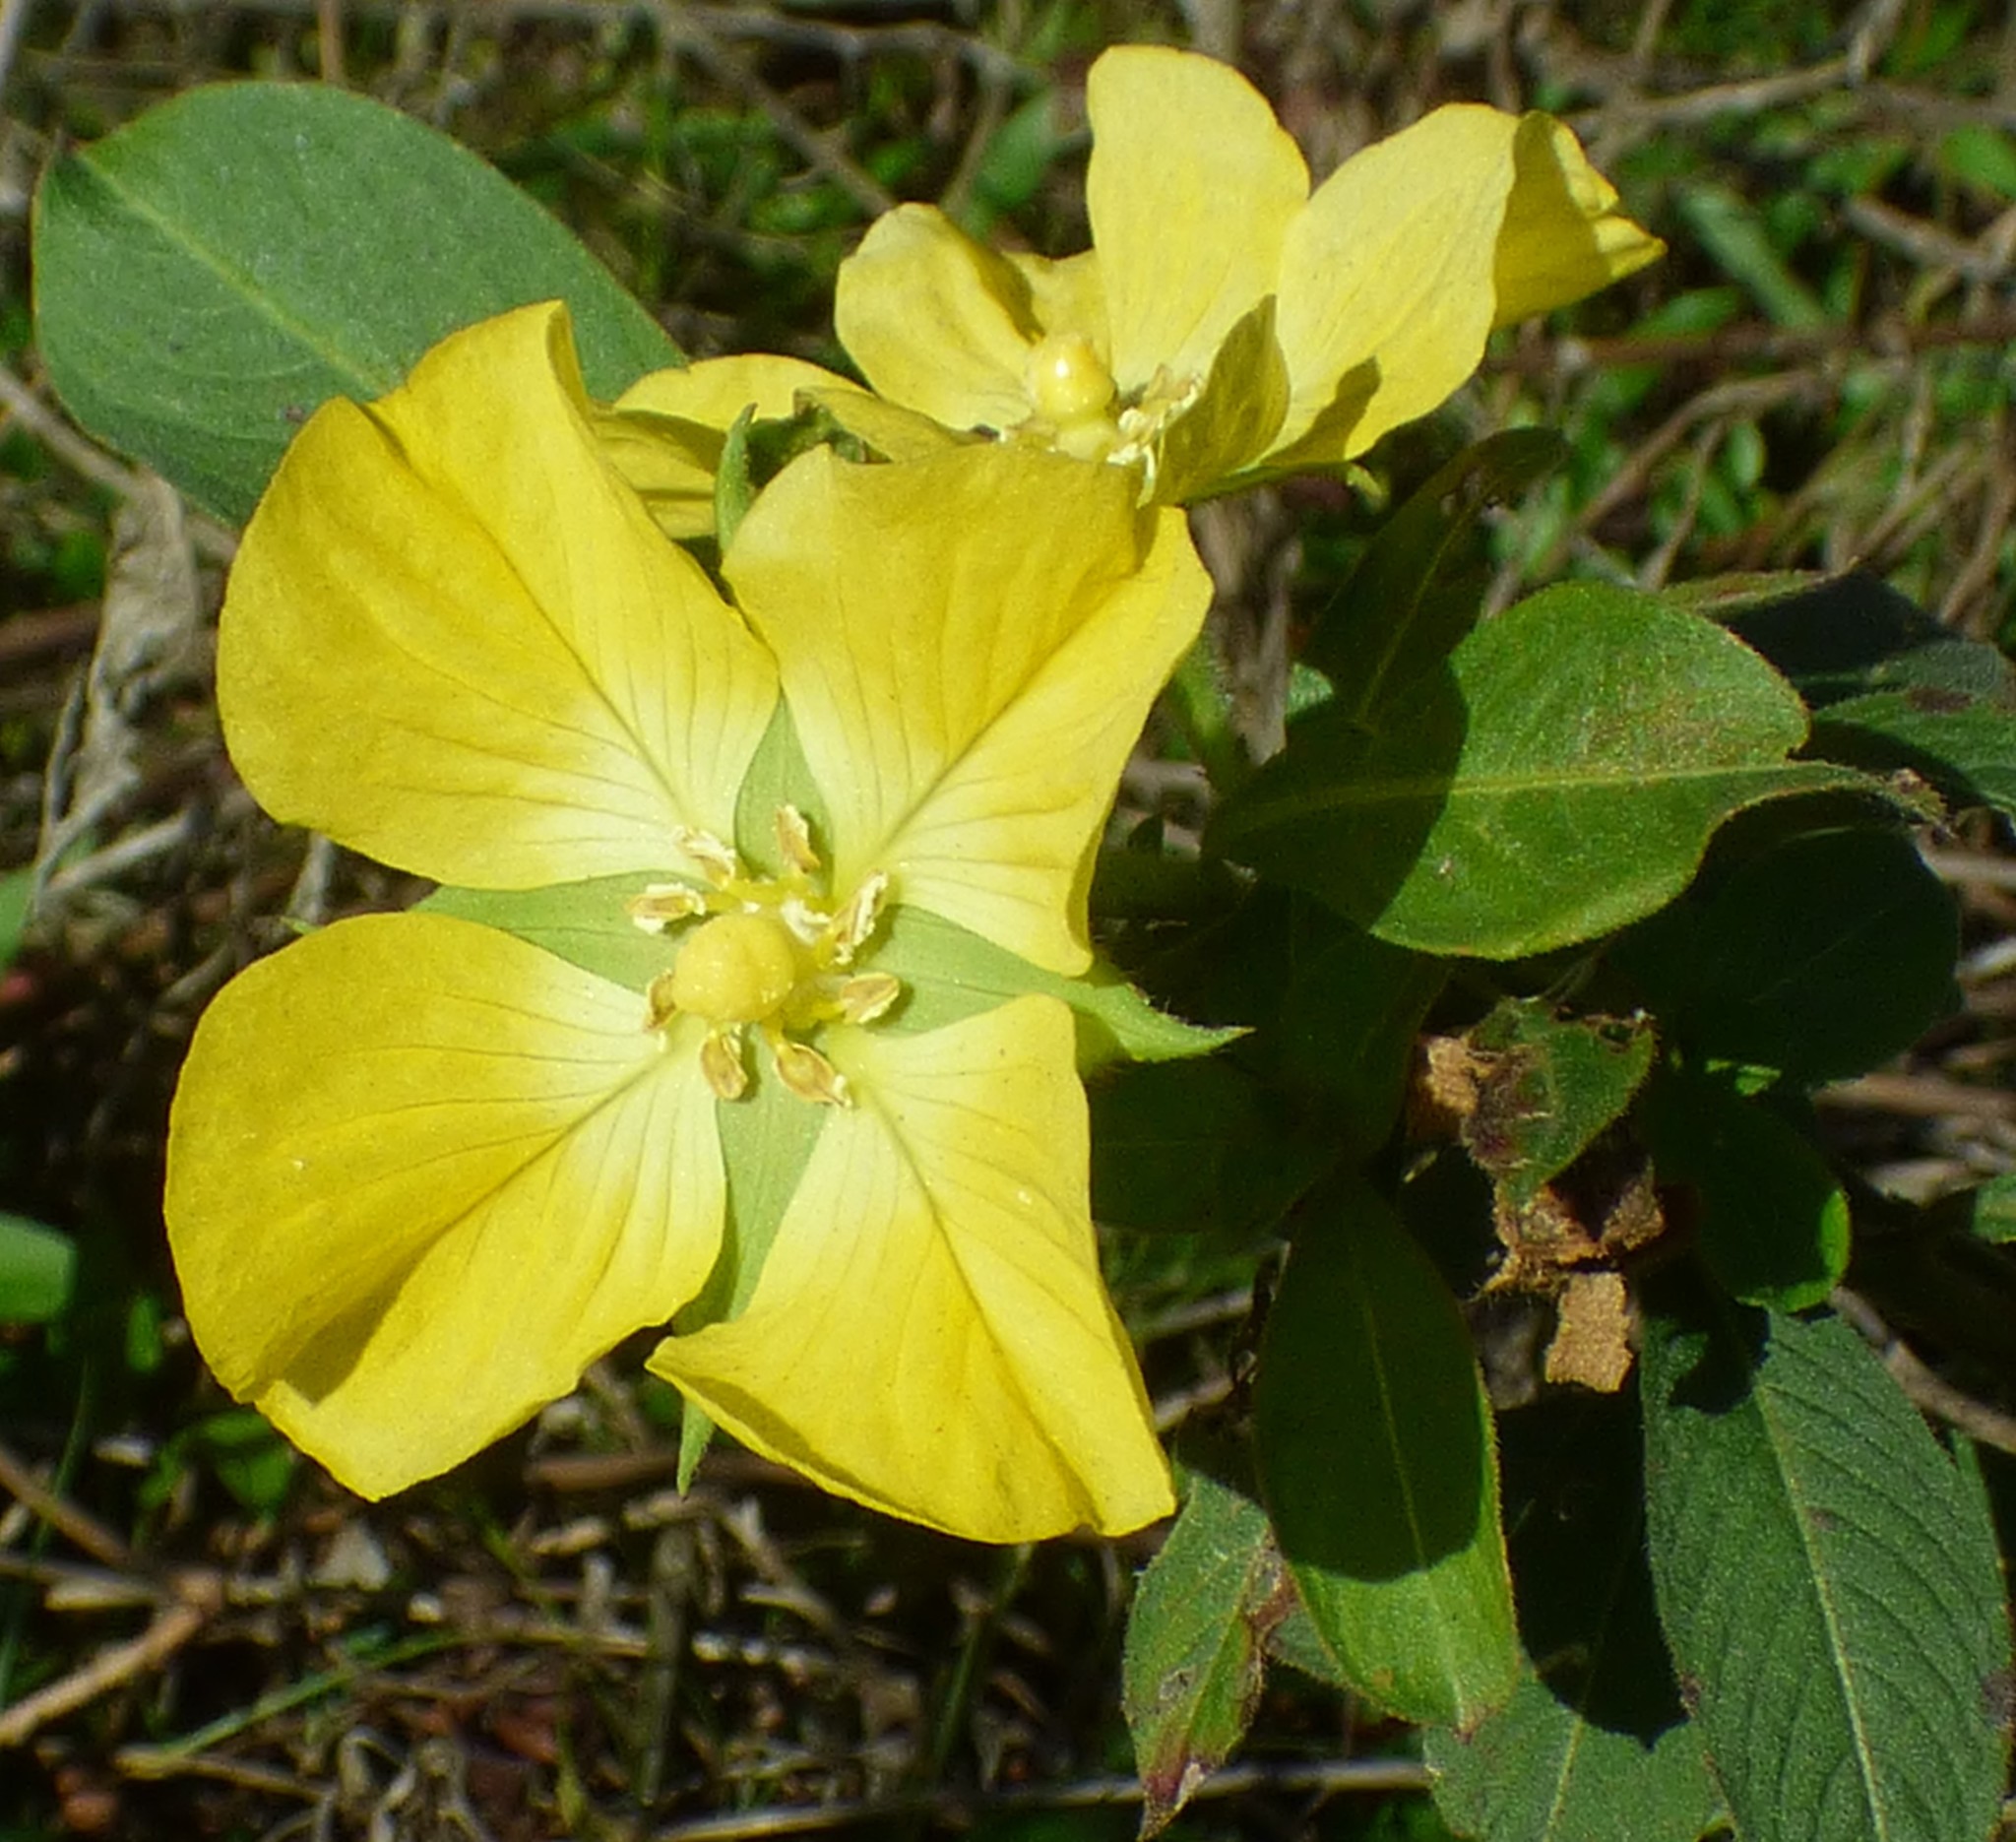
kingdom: Plantae
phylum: Tracheophyta
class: Magnoliopsida
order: Myrtales
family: Onagraceae
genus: Ludwigia
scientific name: Ludwigia peruviana
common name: Peruvian primrose-willow
